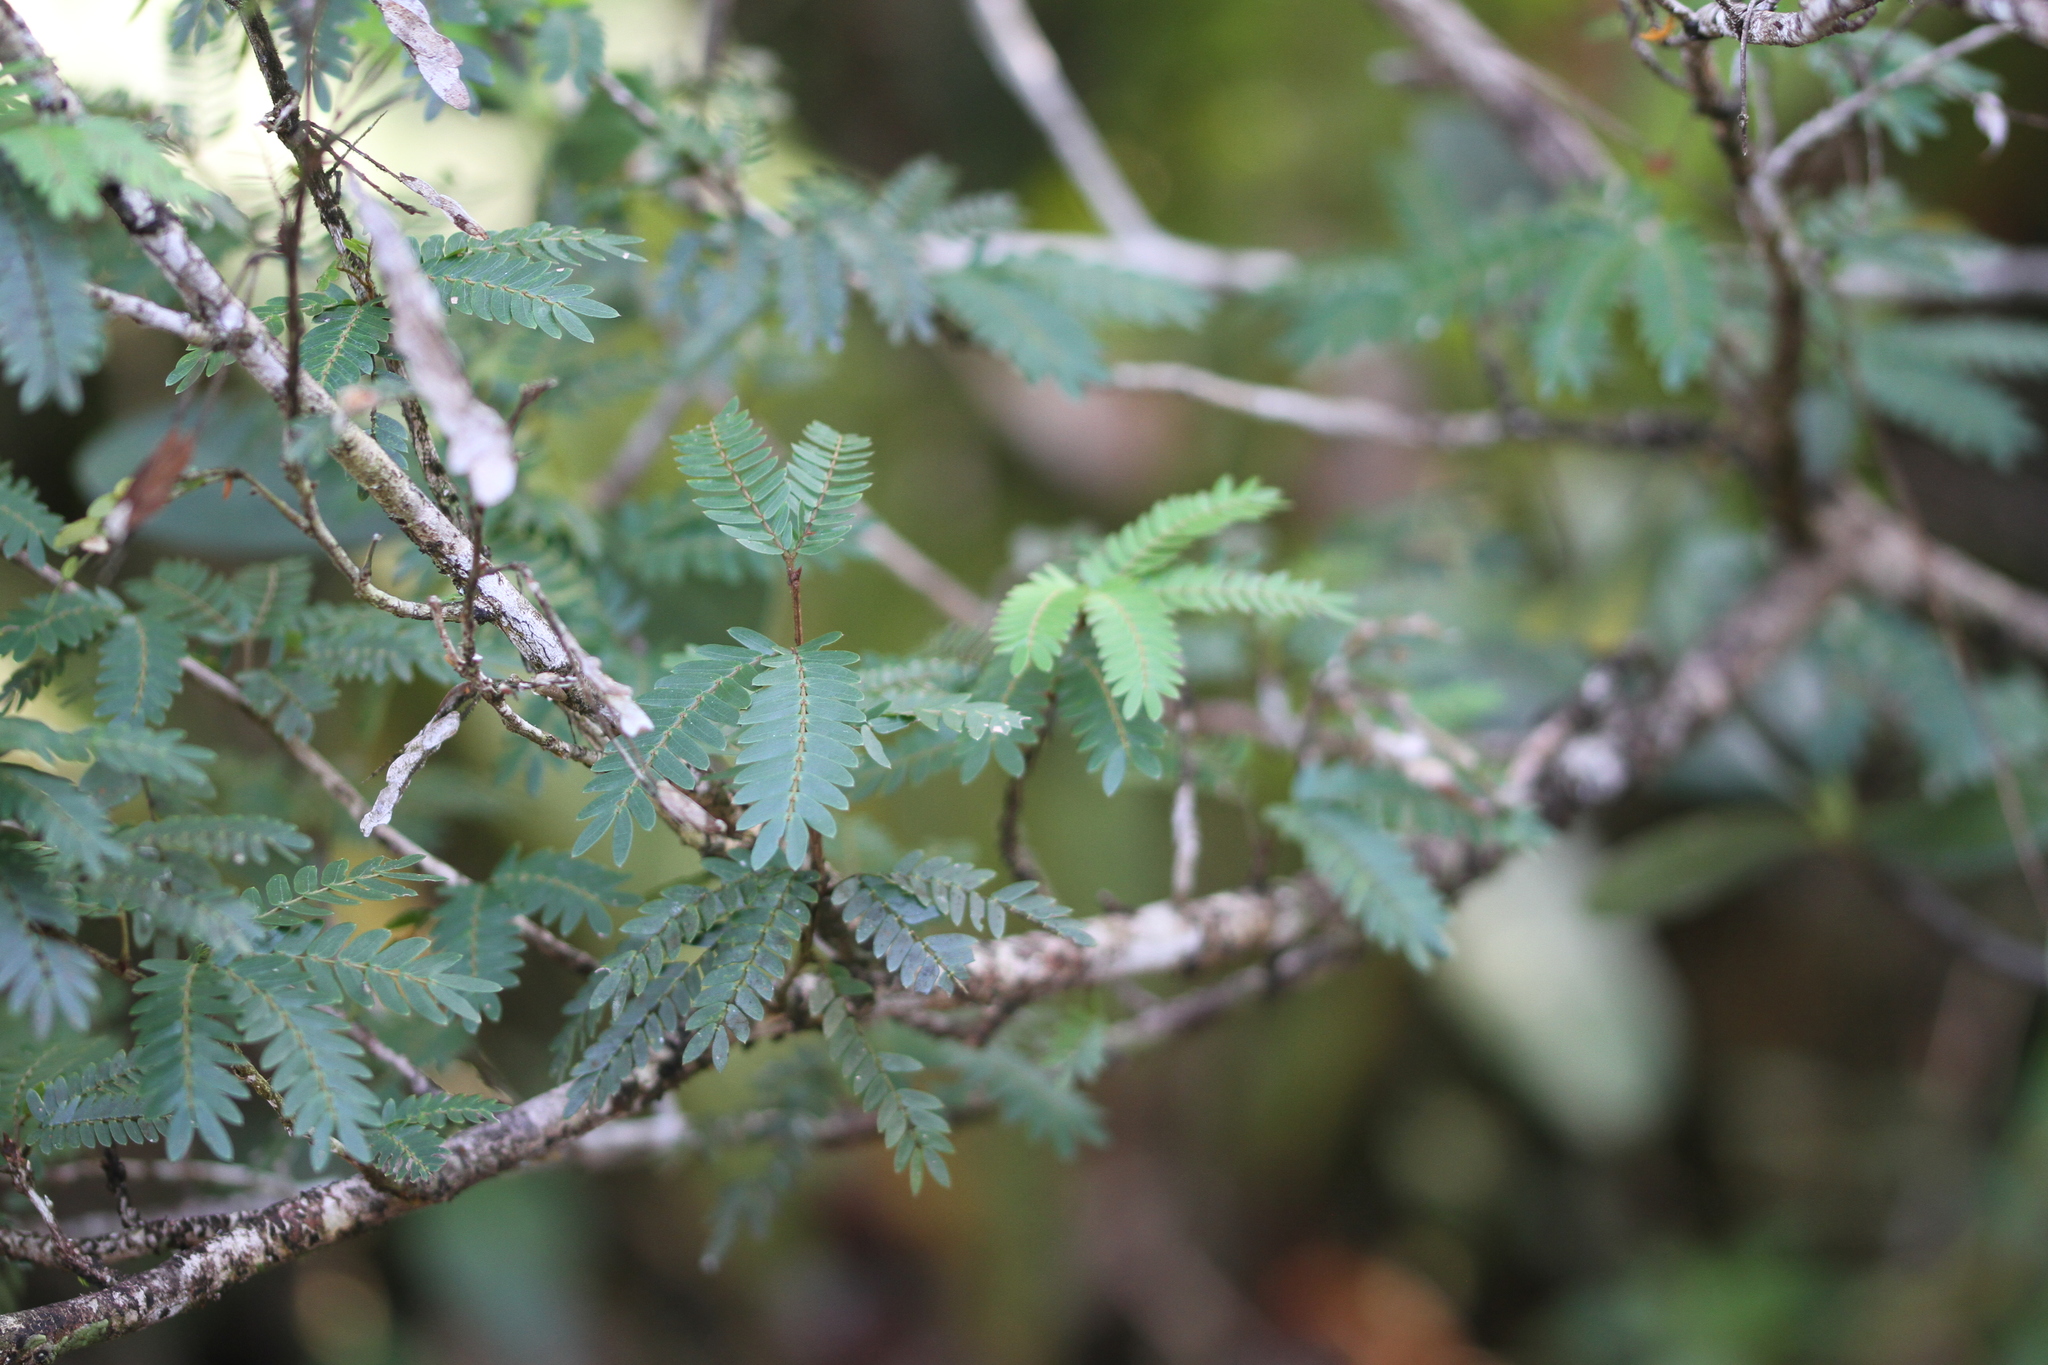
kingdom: Plantae
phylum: Tracheophyta
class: Magnoliopsida
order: Fabales
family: Fabaceae
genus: Calliandra
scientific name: Calliandra surinamensis
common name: Pink powder puff
